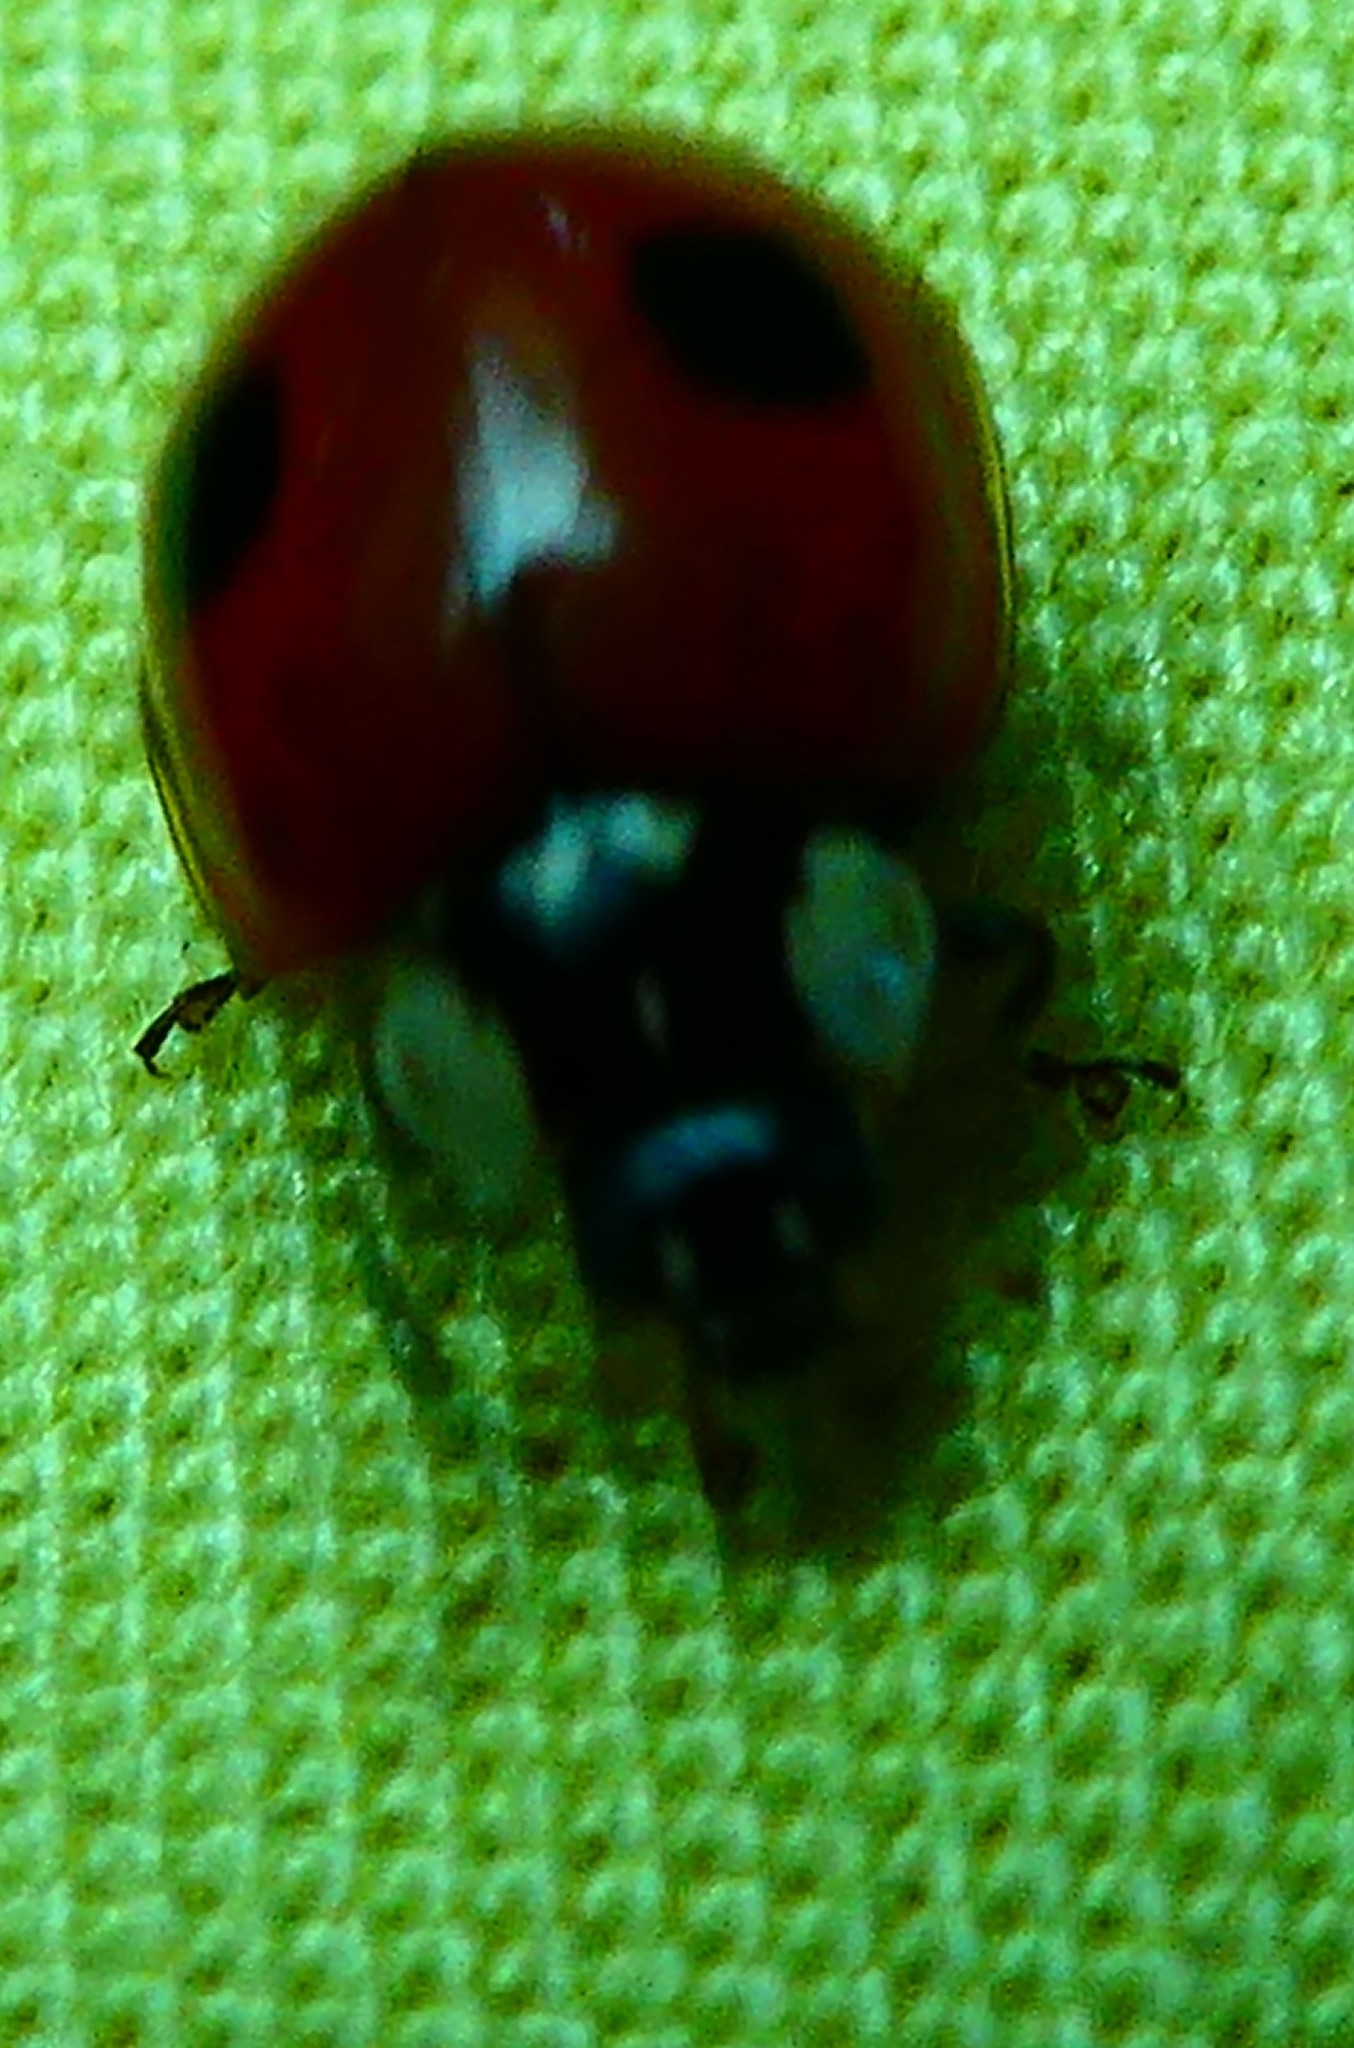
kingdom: Animalia
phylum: Arthropoda
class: Insecta
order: Coleoptera
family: Coccinellidae
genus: Adalia
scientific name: Adalia bipunctata
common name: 2-spot ladybird
